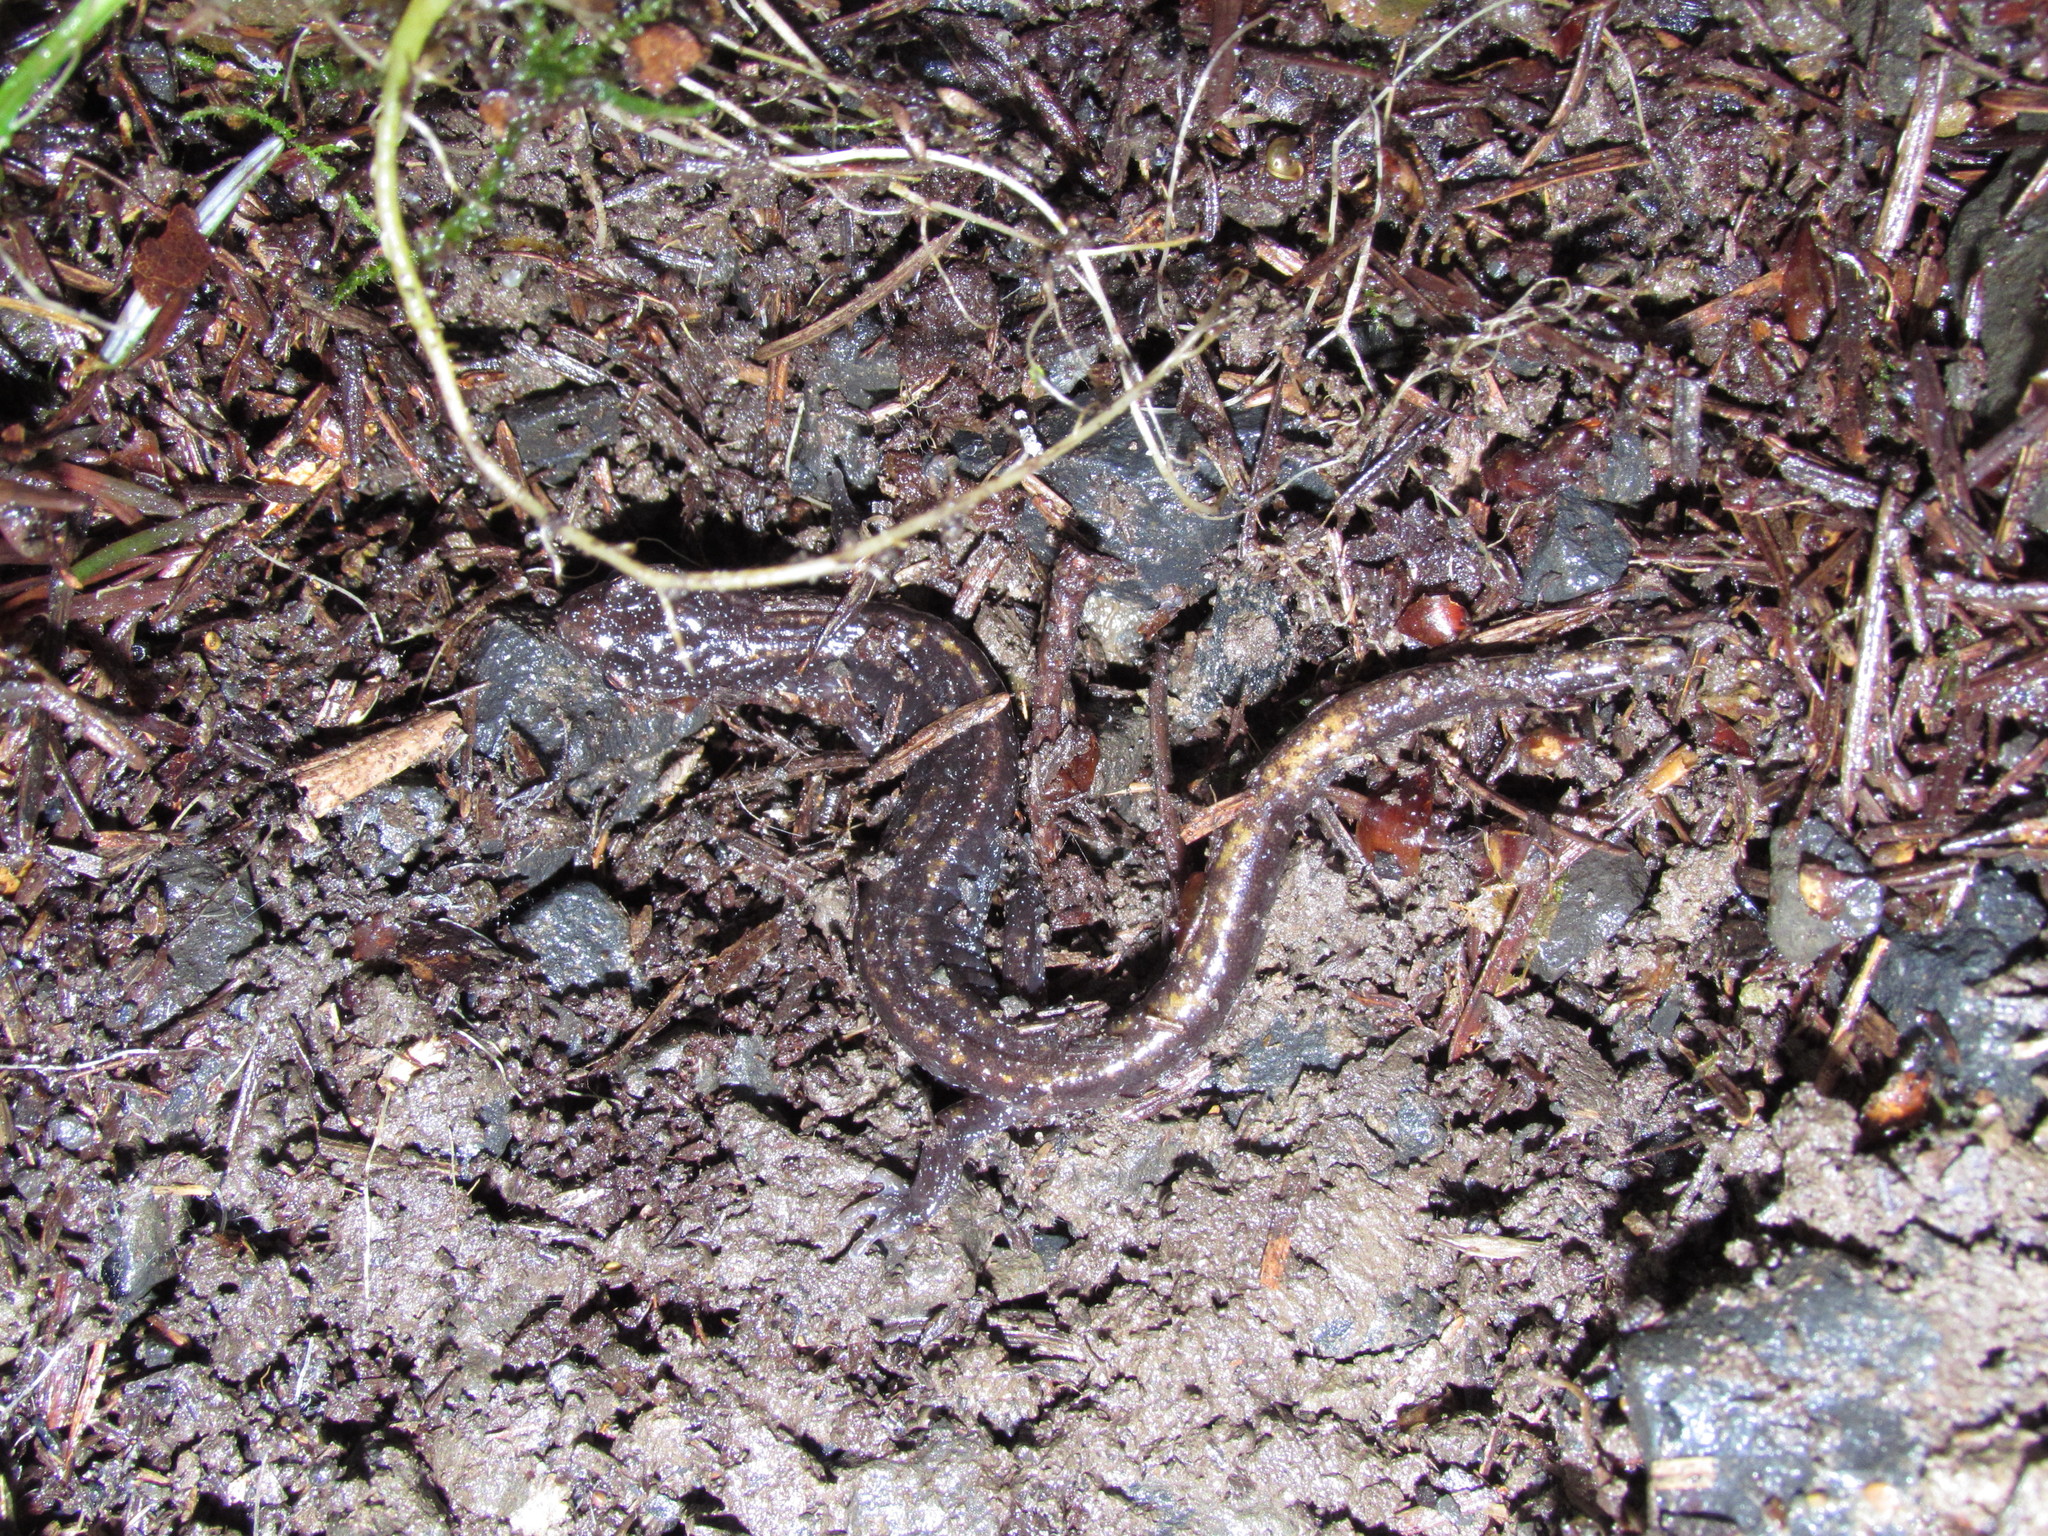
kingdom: Animalia
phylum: Chordata
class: Amphibia
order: Caudata
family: Plethodontidae
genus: Plethodon
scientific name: Plethodon dunni
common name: Dunn's salamander
